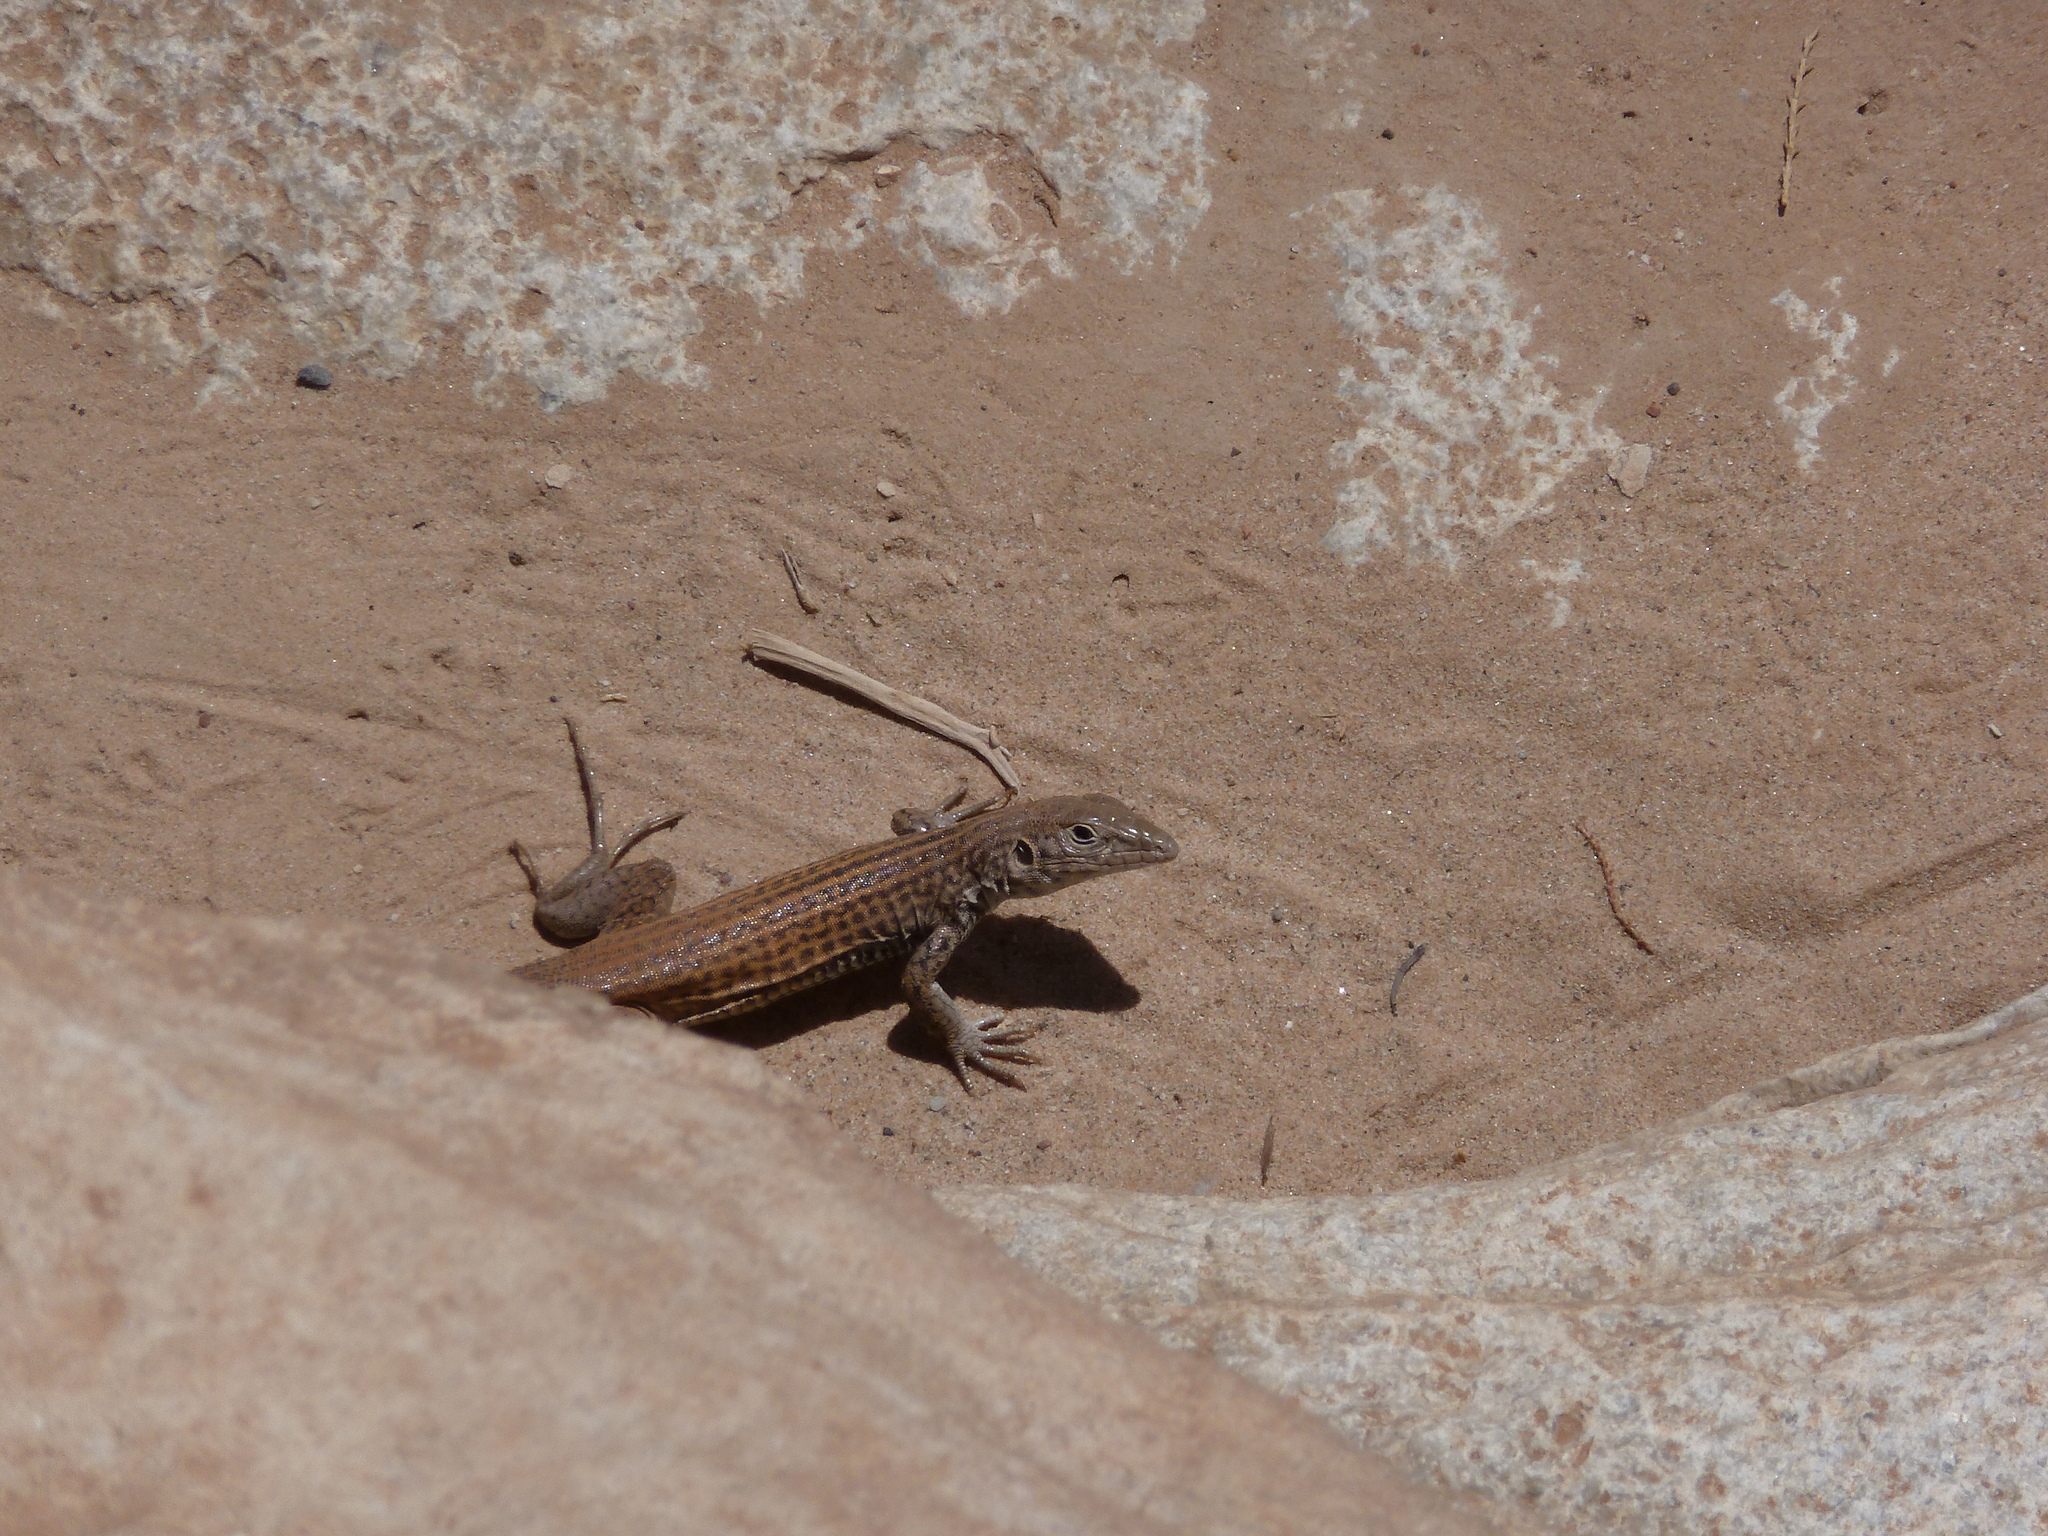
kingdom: Animalia
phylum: Chordata
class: Squamata
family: Teiidae
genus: Aspidoscelis
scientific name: Aspidoscelis tigris
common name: Tiger whiptail
